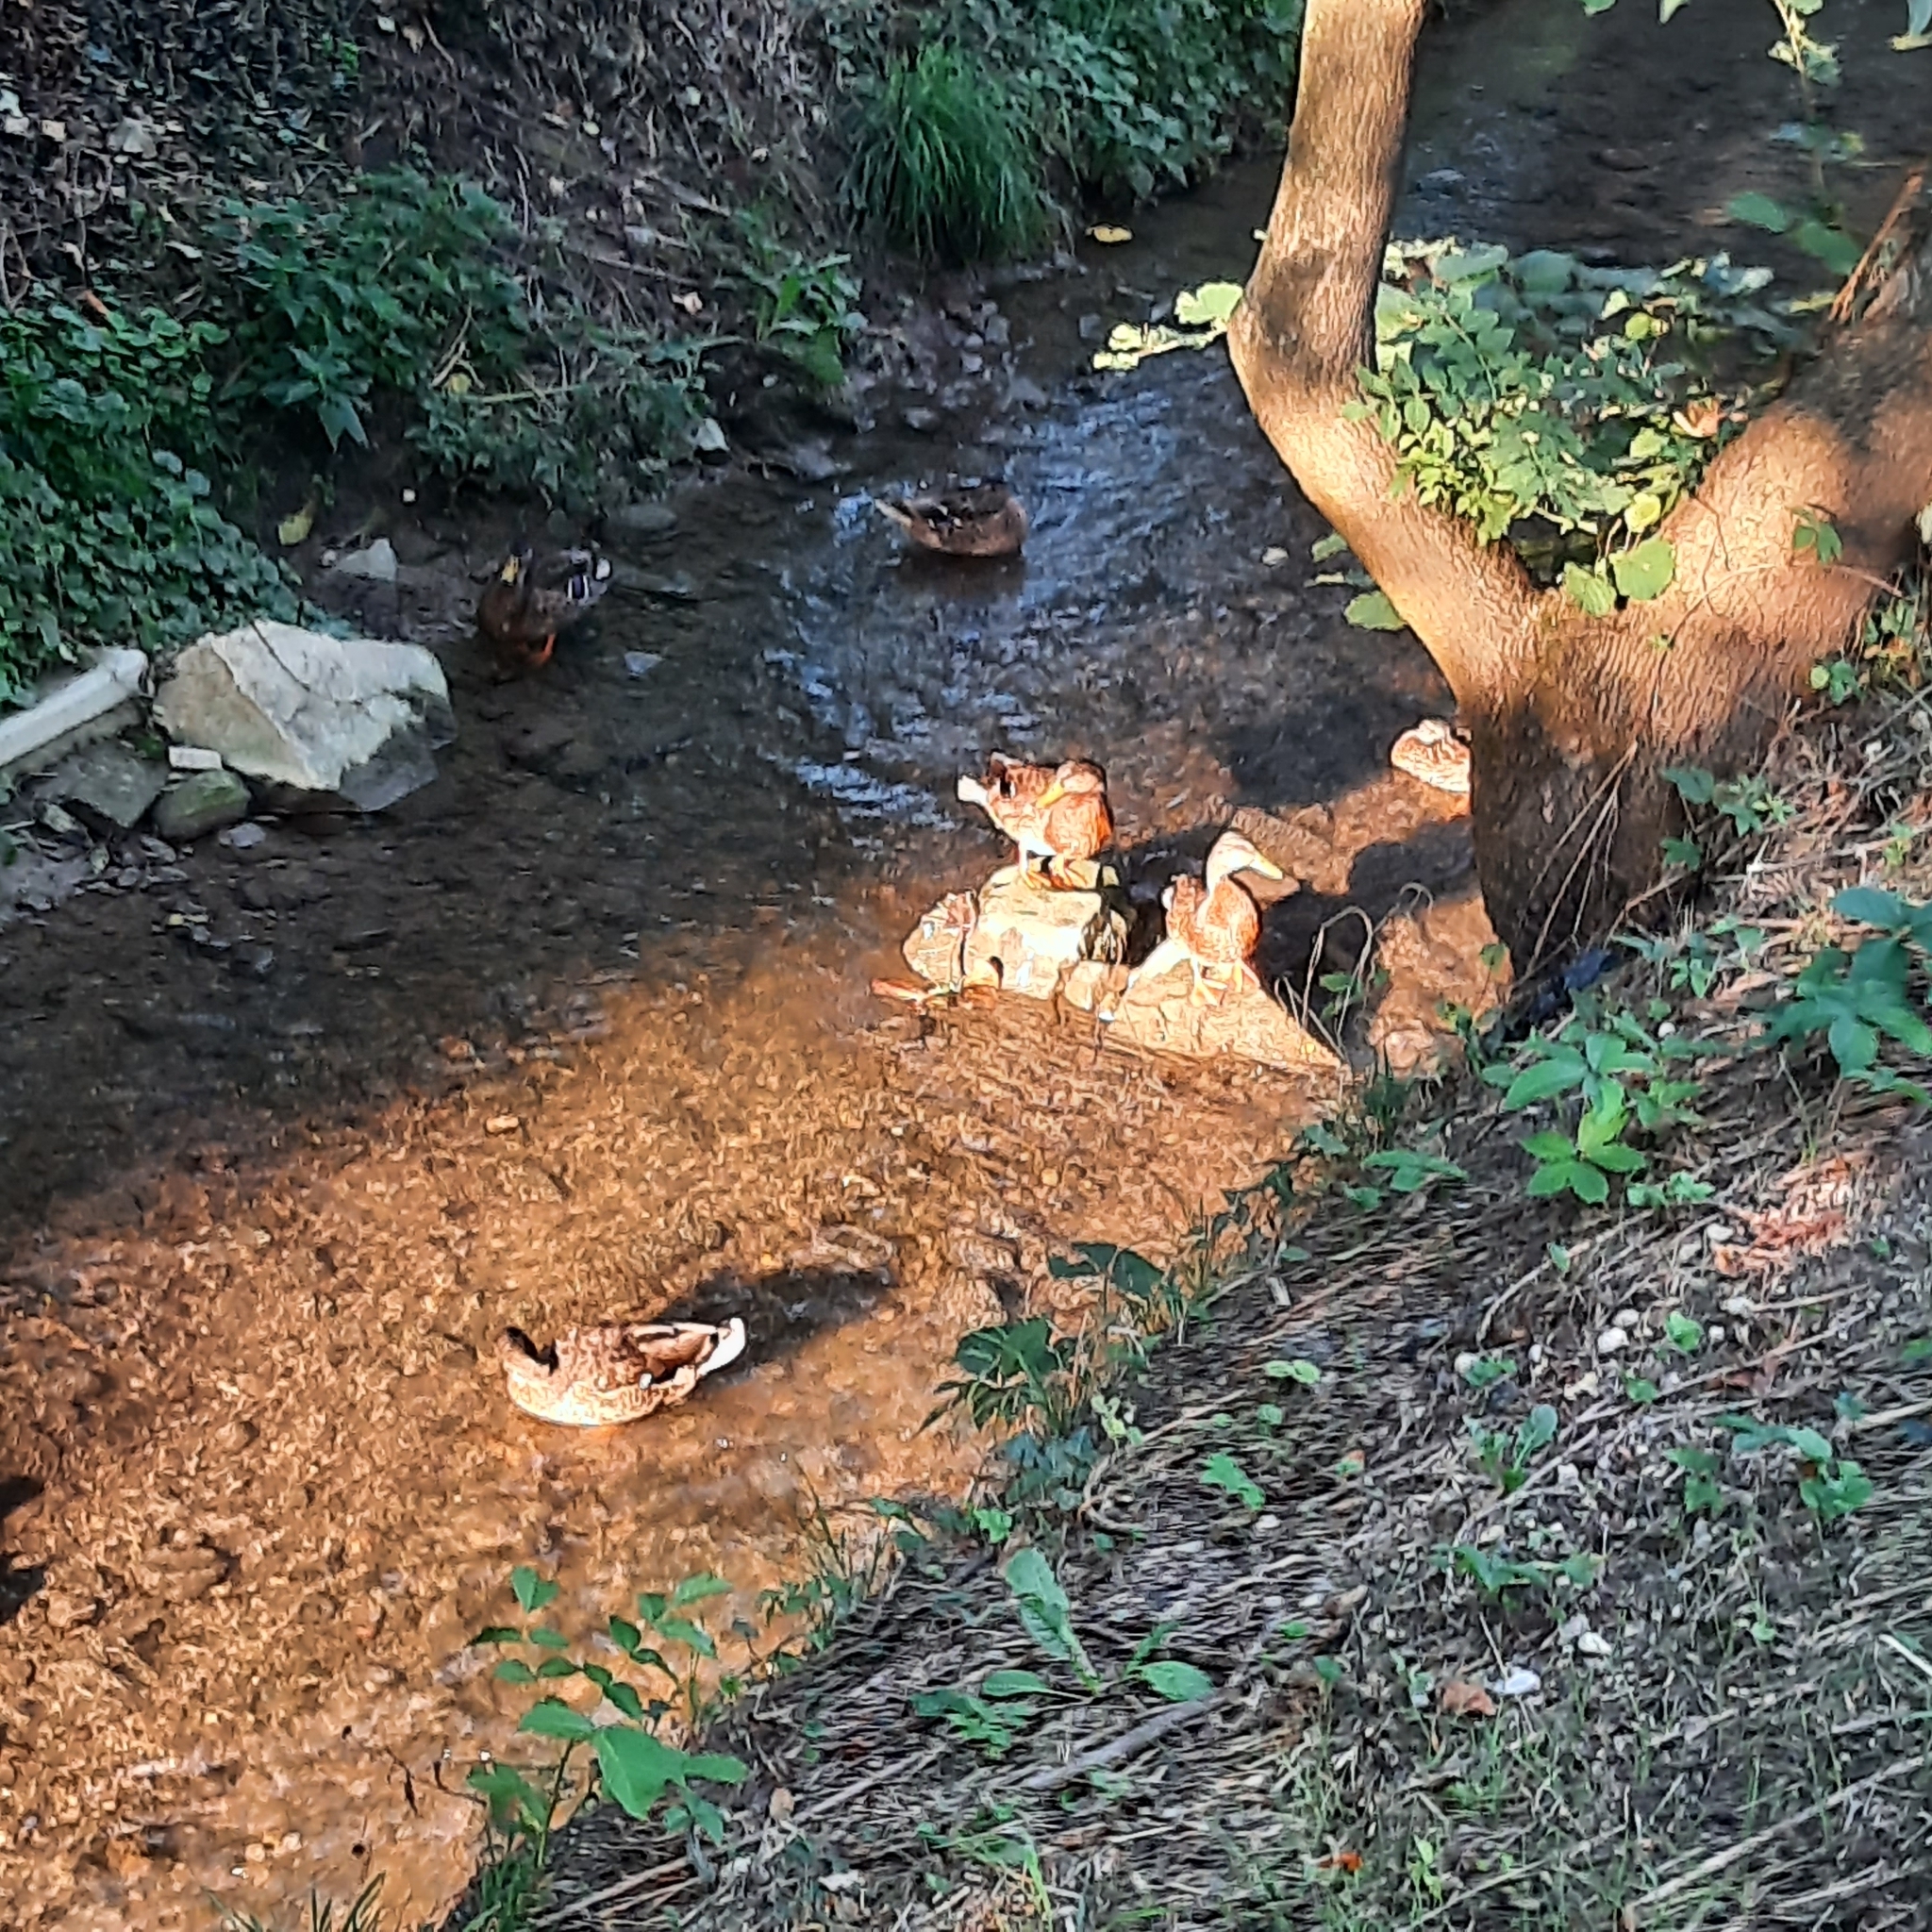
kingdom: Animalia
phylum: Chordata
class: Aves
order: Anseriformes
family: Anatidae
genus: Anas
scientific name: Anas platyrhynchos
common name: Mallard
